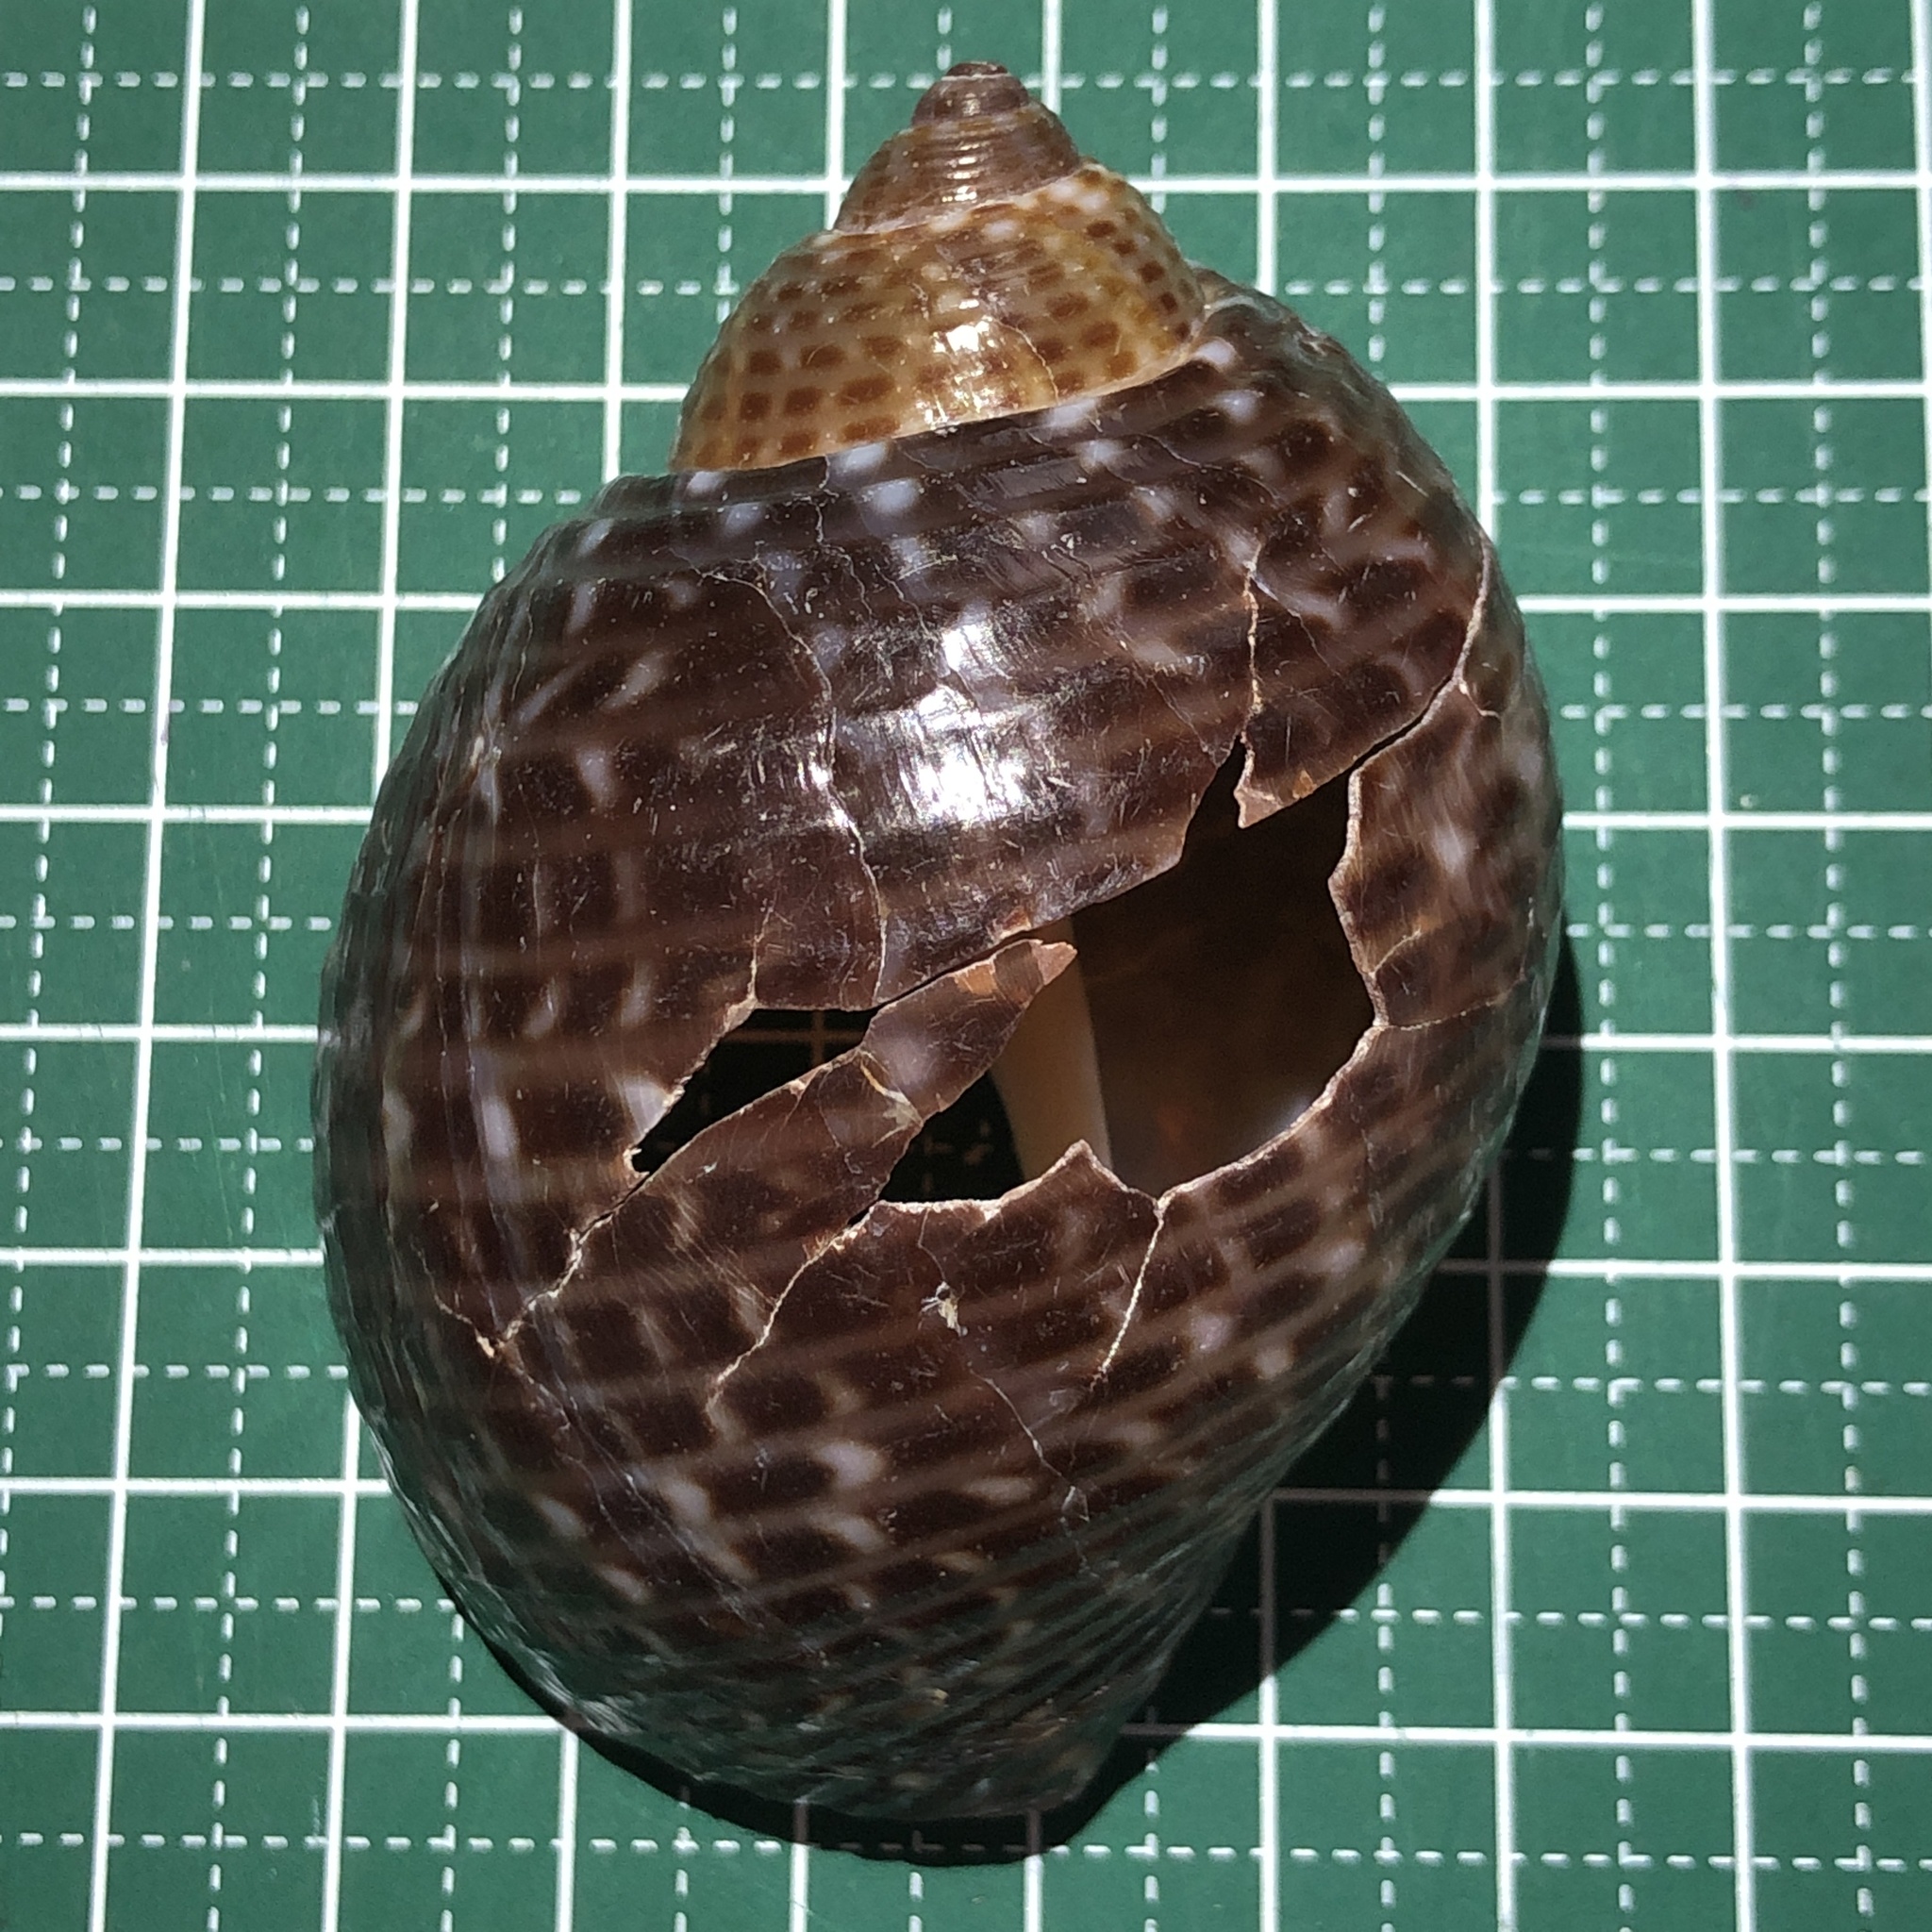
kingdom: Animalia
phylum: Mollusca
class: Gastropoda
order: Littorinimorpha
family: Tonnidae
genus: Tonna
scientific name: Tonna perdix
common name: Pacific partridge tun
